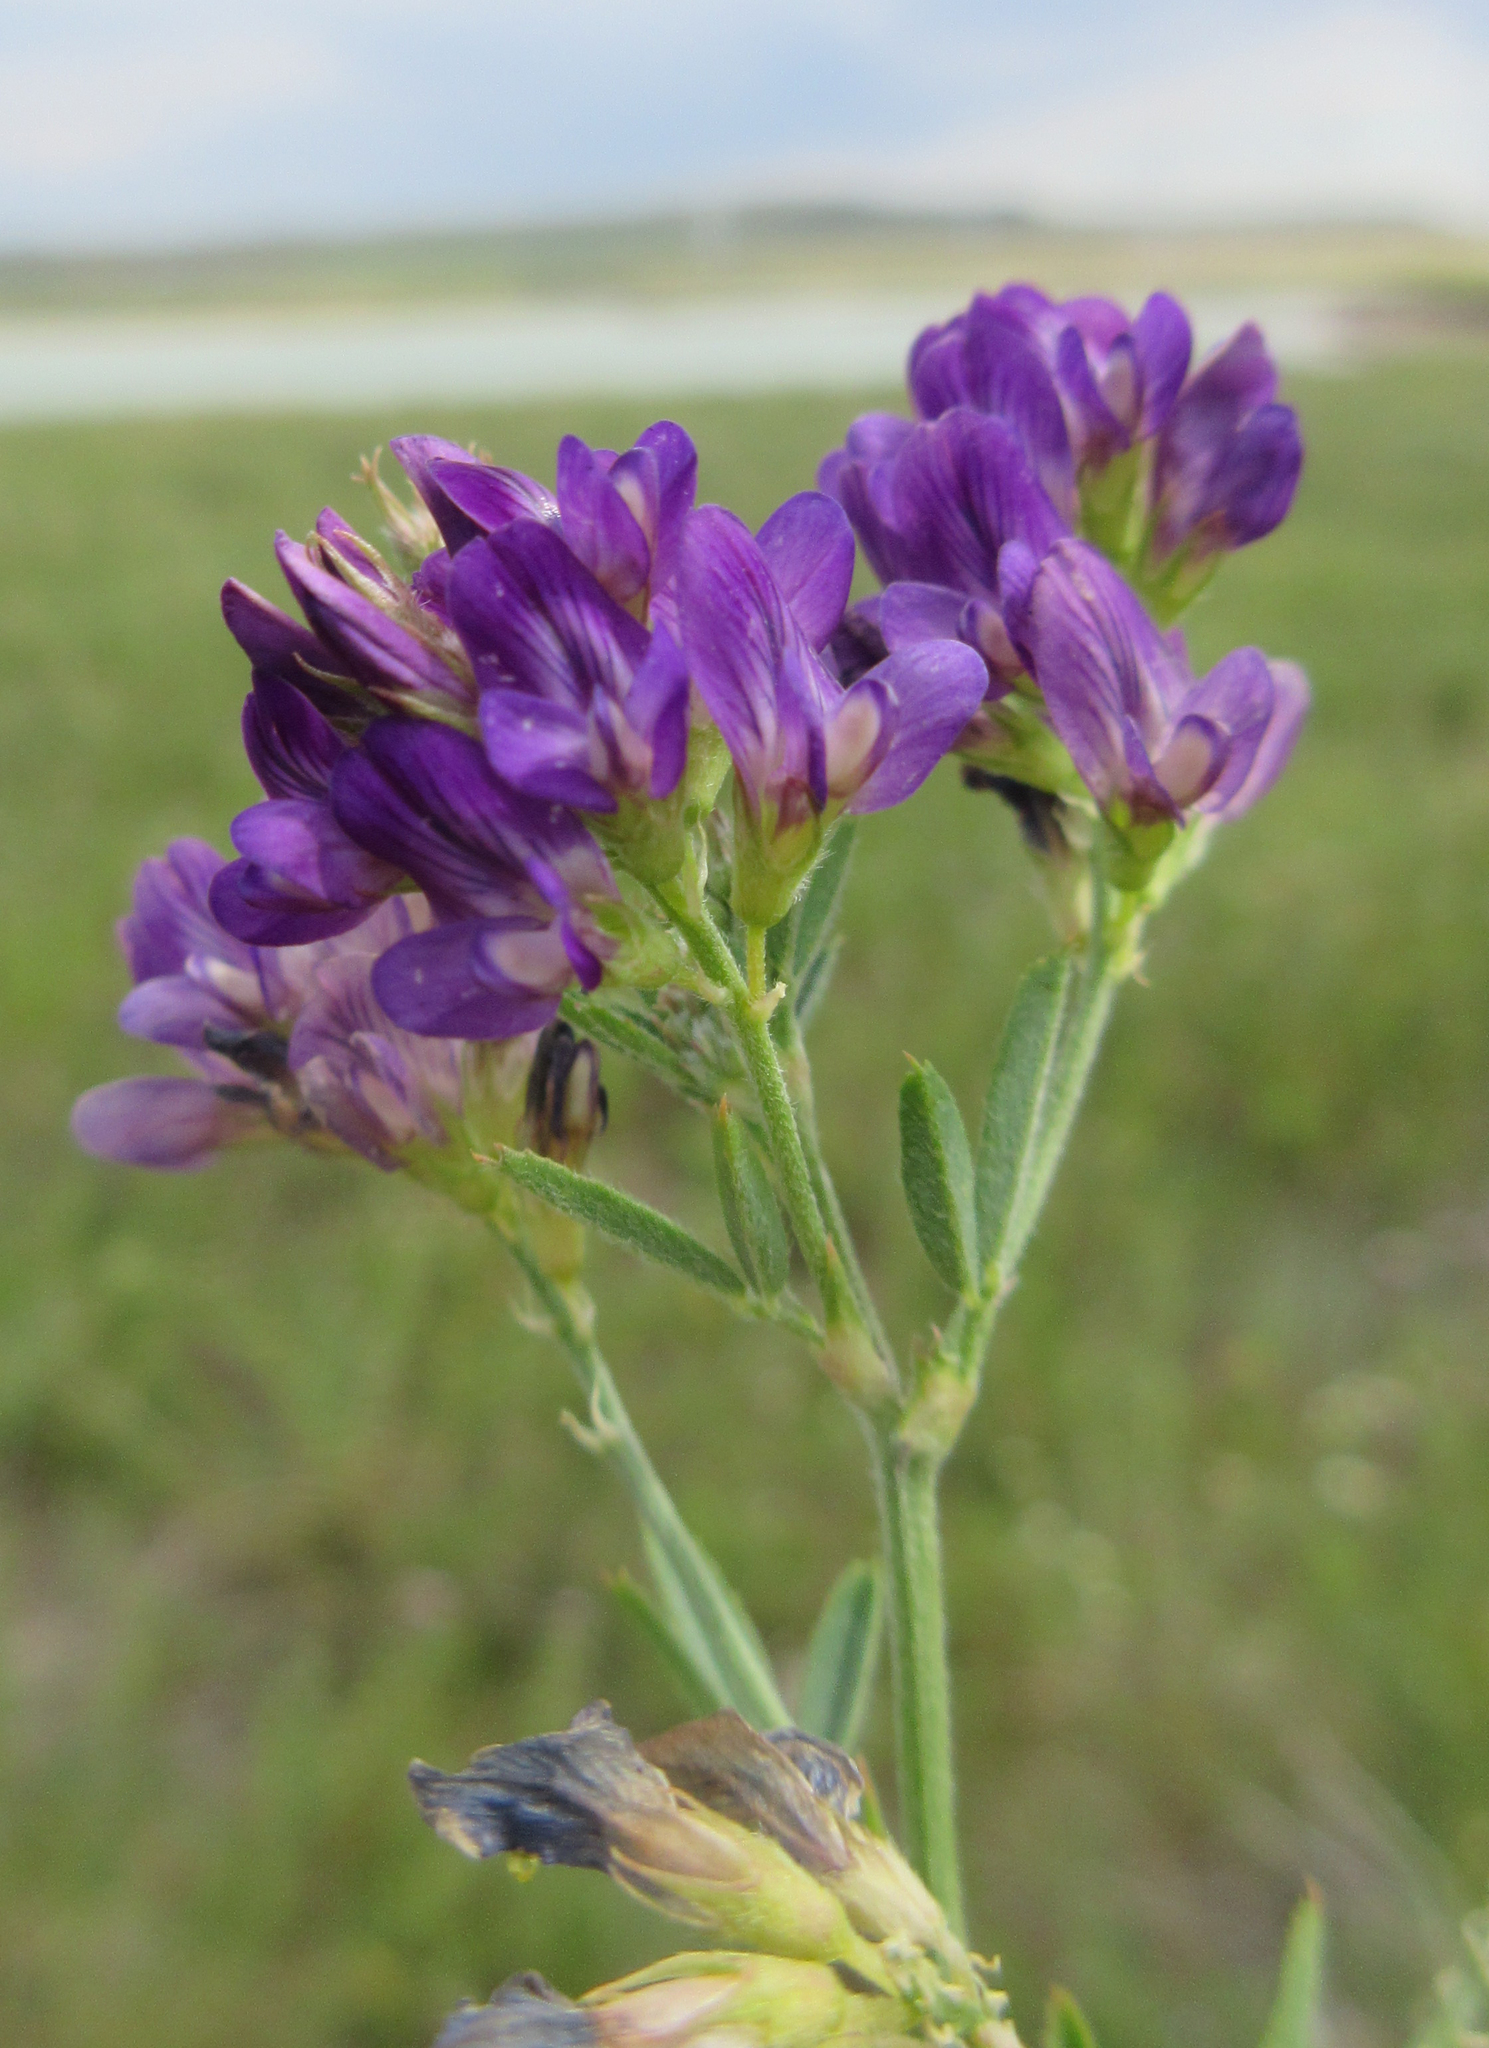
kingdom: Plantae
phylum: Tracheophyta
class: Magnoliopsida
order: Fabales
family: Fabaceae
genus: Medicago
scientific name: Medicago sativa
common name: Alfalfa
